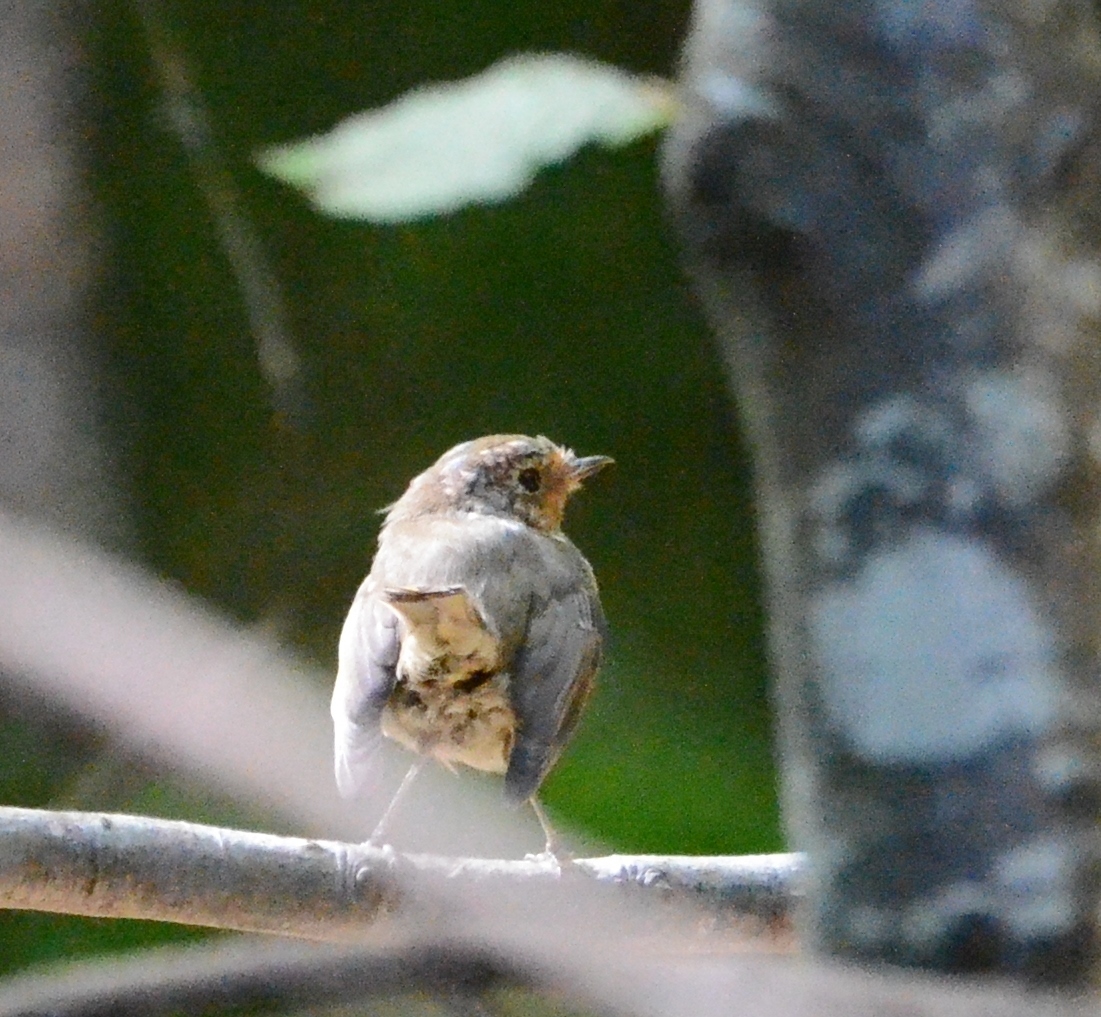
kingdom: Animalia
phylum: Chordata
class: Aves
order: Passeriformes
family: Muscicapidae
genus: Erithacus
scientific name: Erithacus rubecula
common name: European robin
